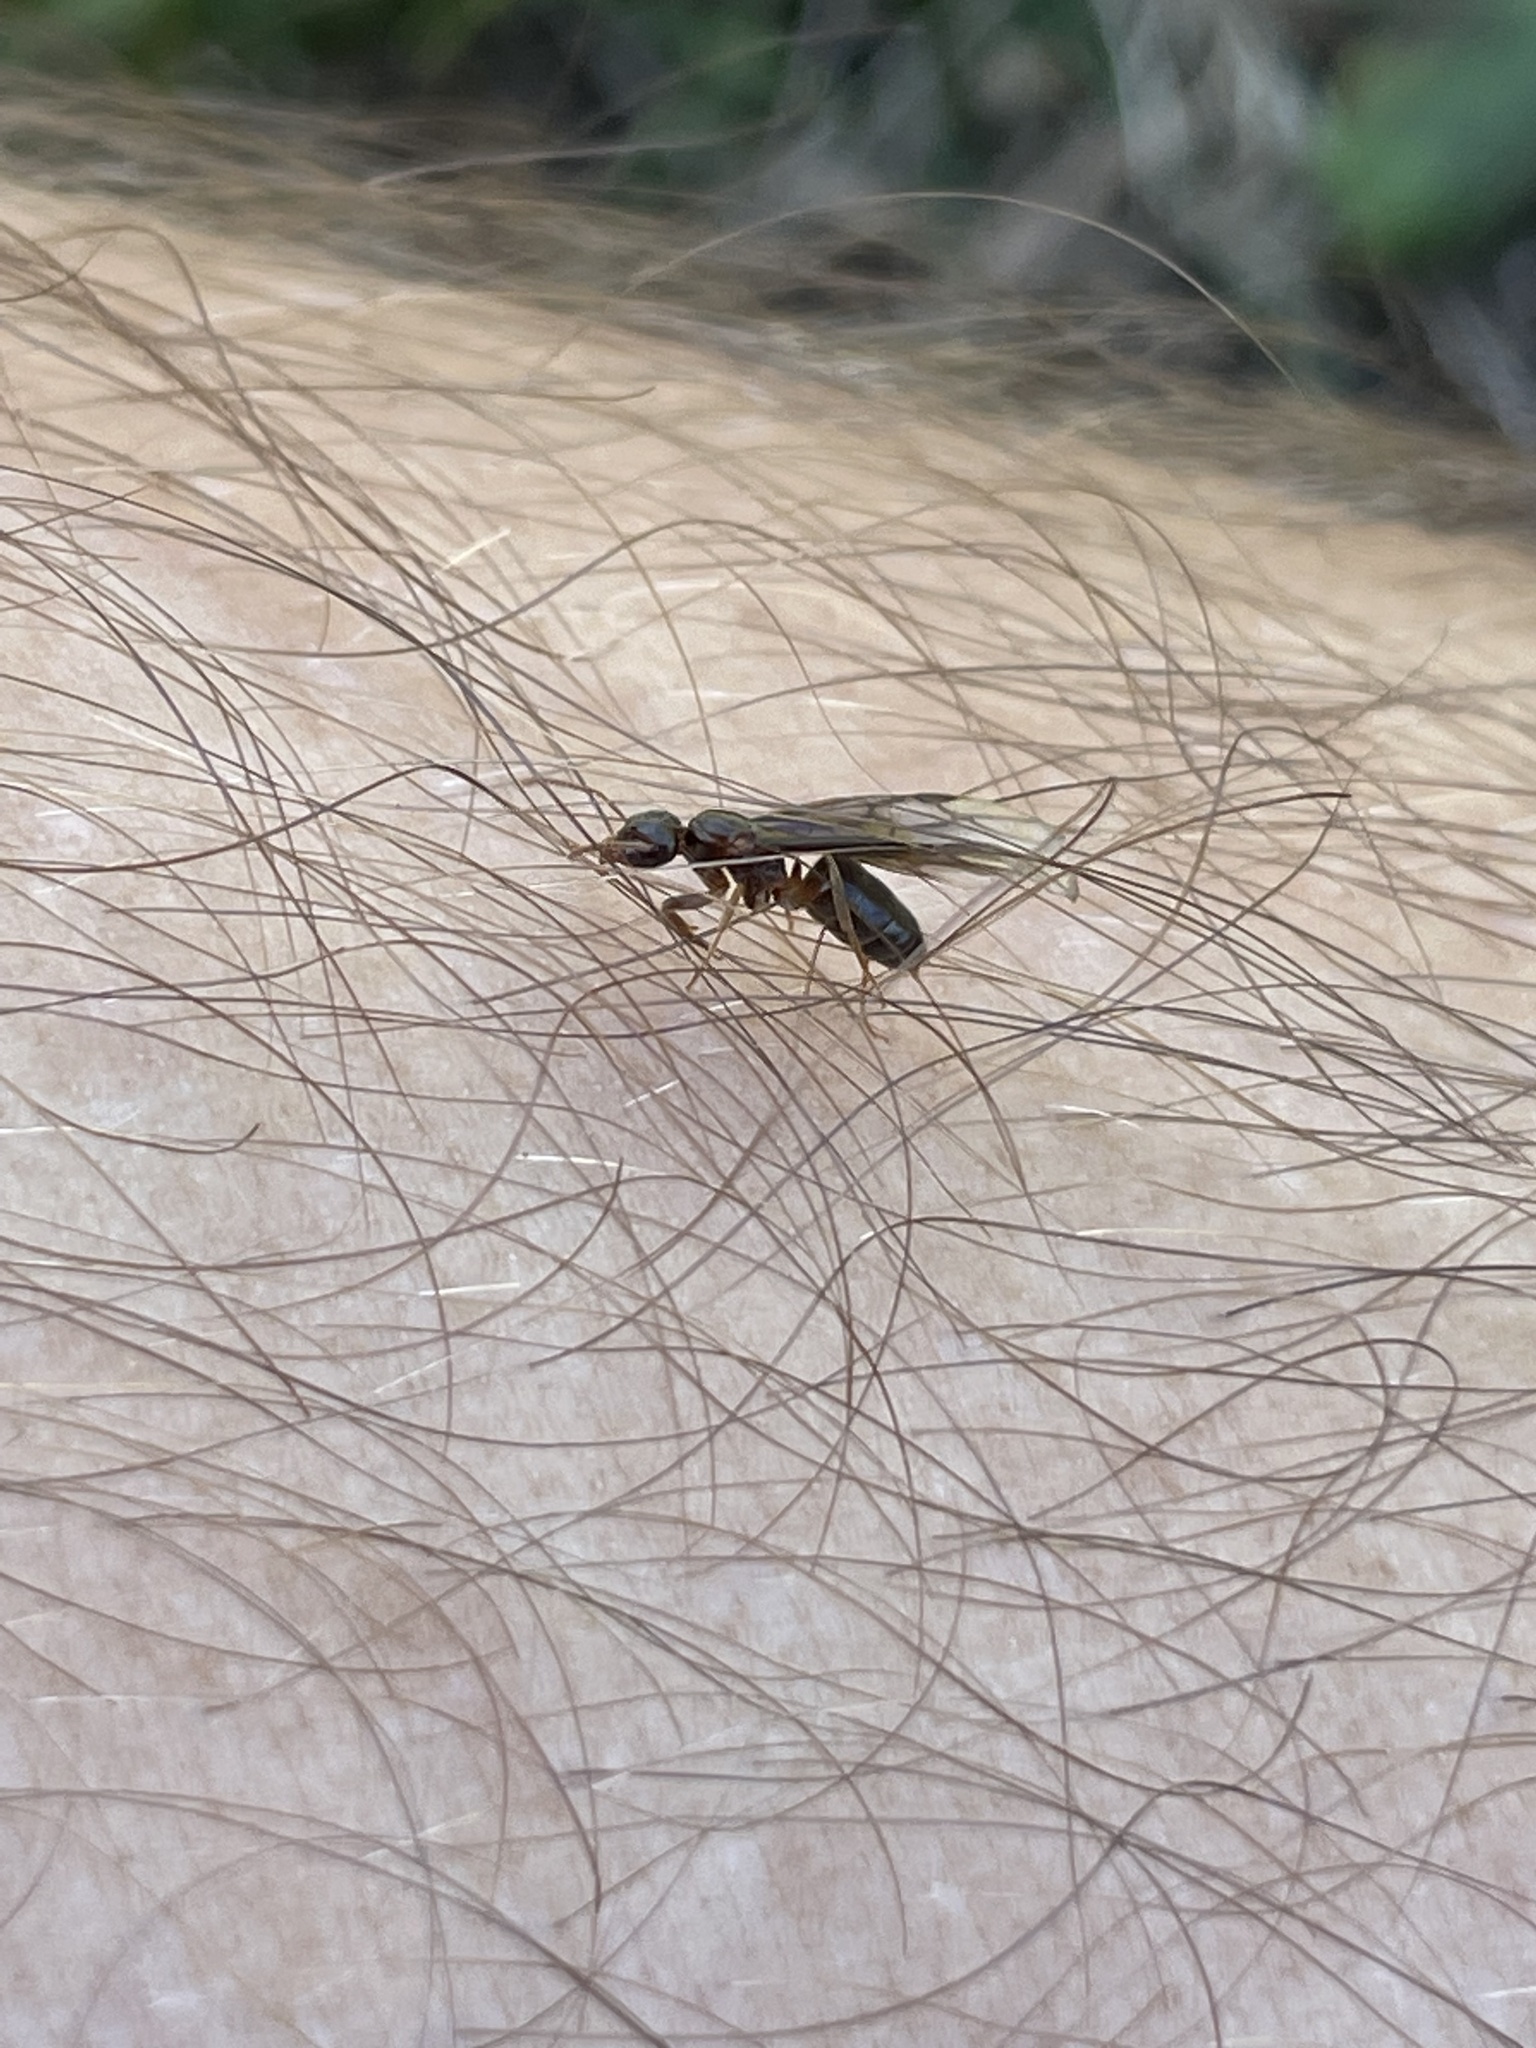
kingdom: Animalia
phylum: Arthropoda
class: Insecta
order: Hymenoptera
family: Formicidae
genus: Lasius
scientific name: Lasius aphidicola
